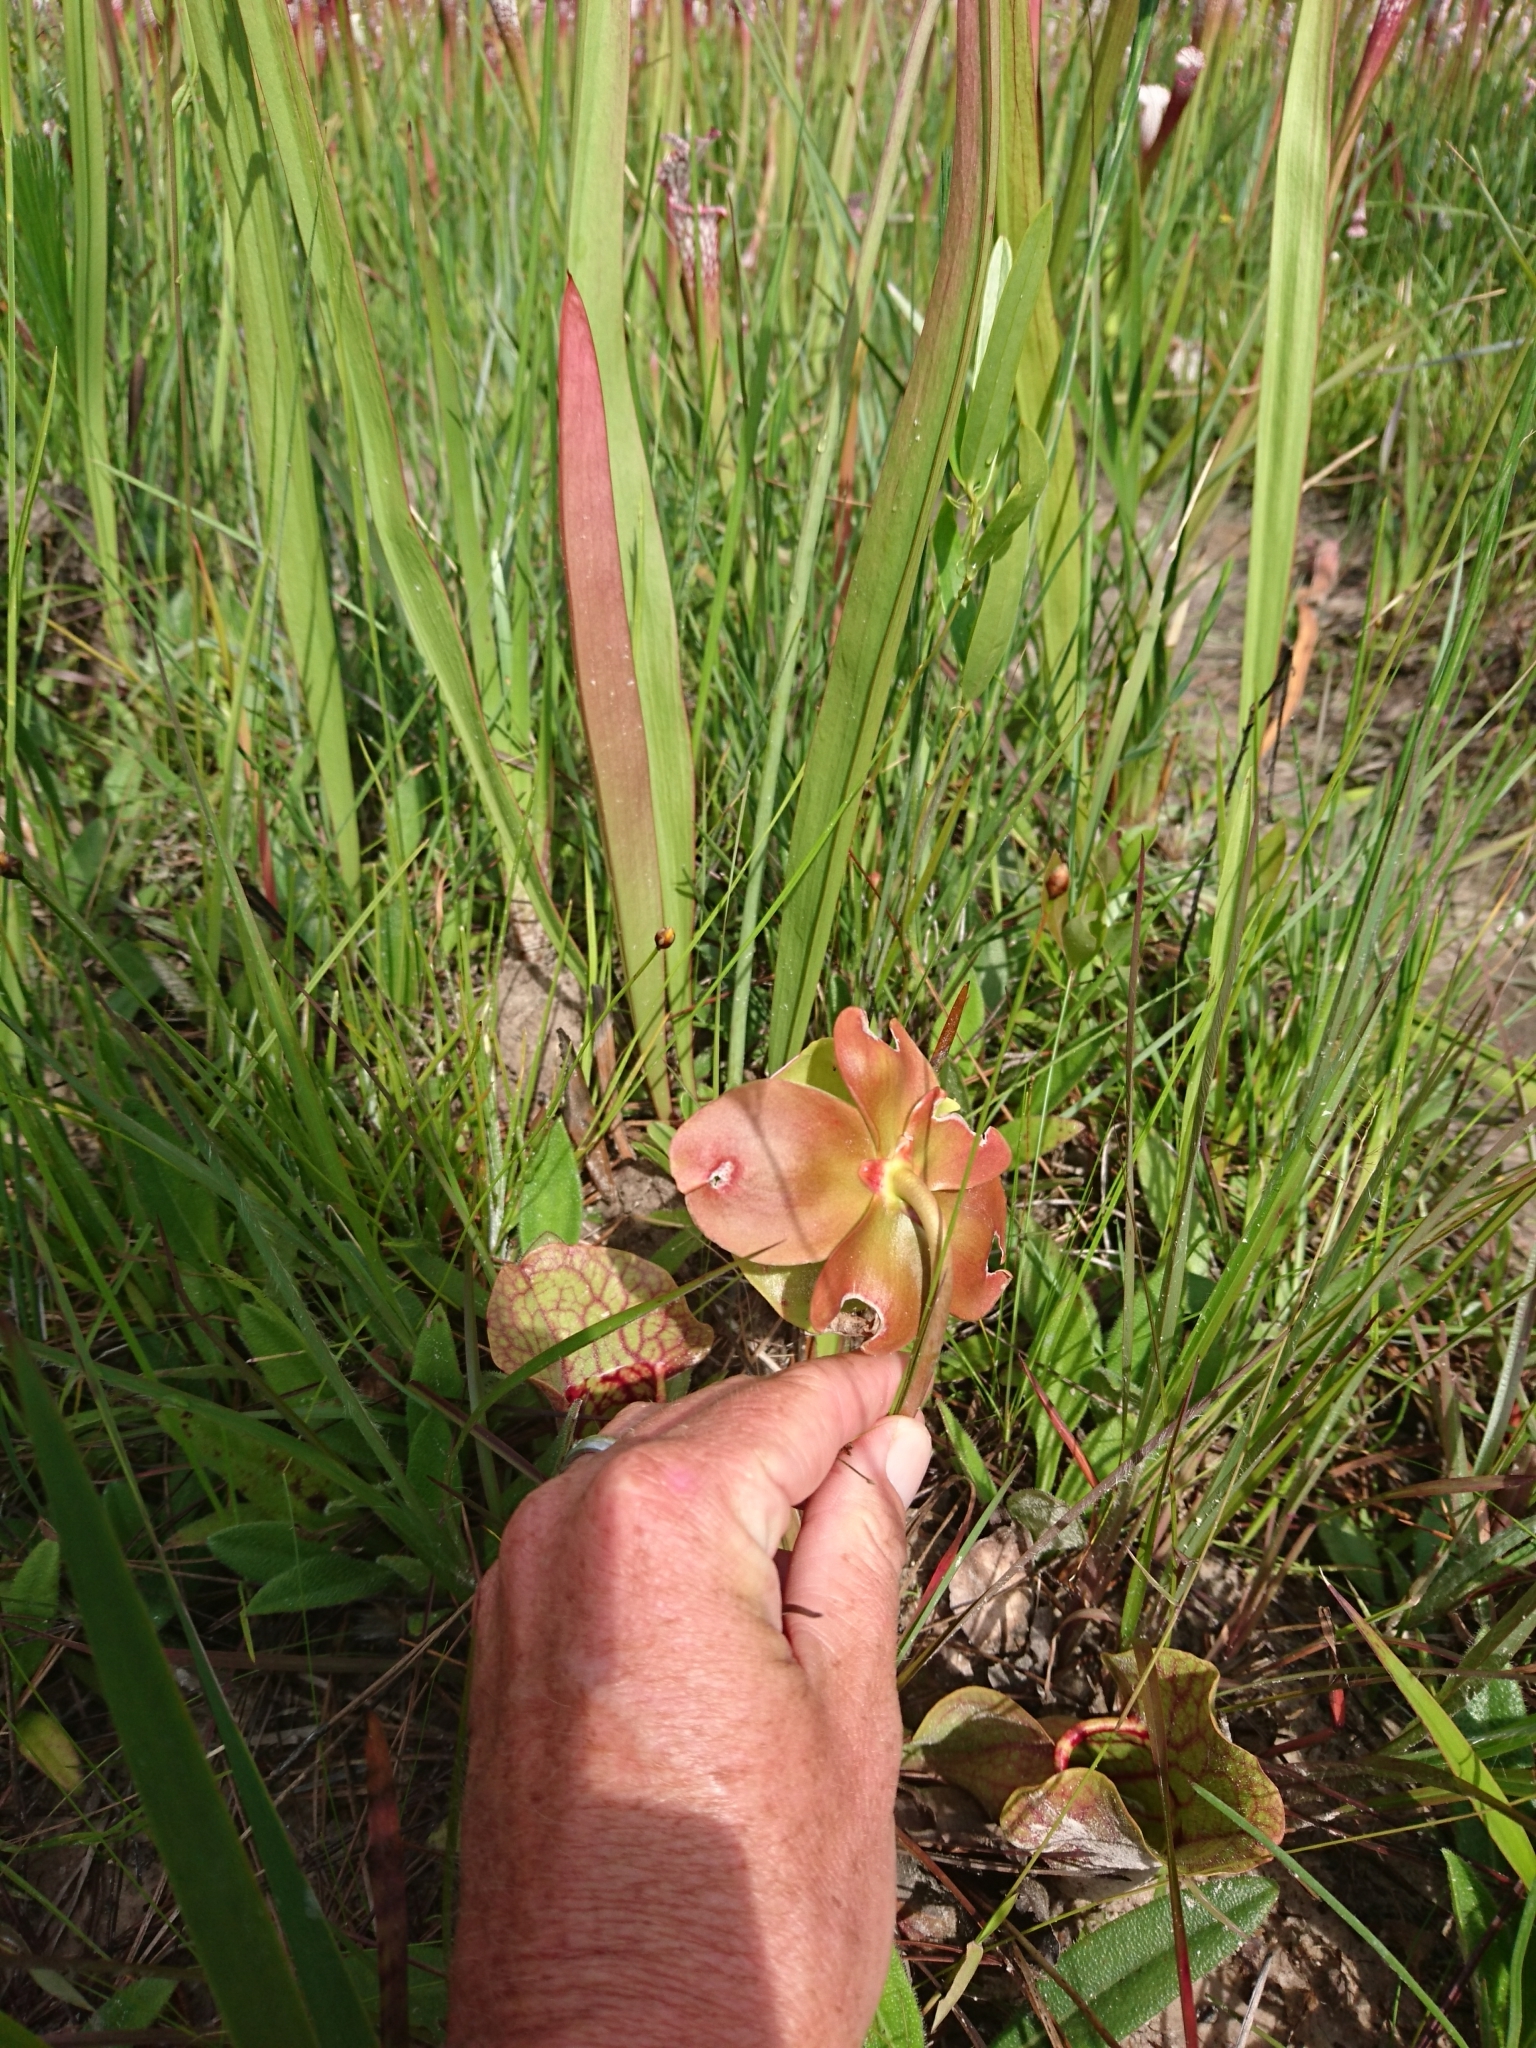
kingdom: Plantae
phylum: Tracheophyta
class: Magnoliopsida
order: Ericales
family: Sarraceniaceae
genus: Sarracenia
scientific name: Sarracenia rosea
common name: Pink pitcherplant
